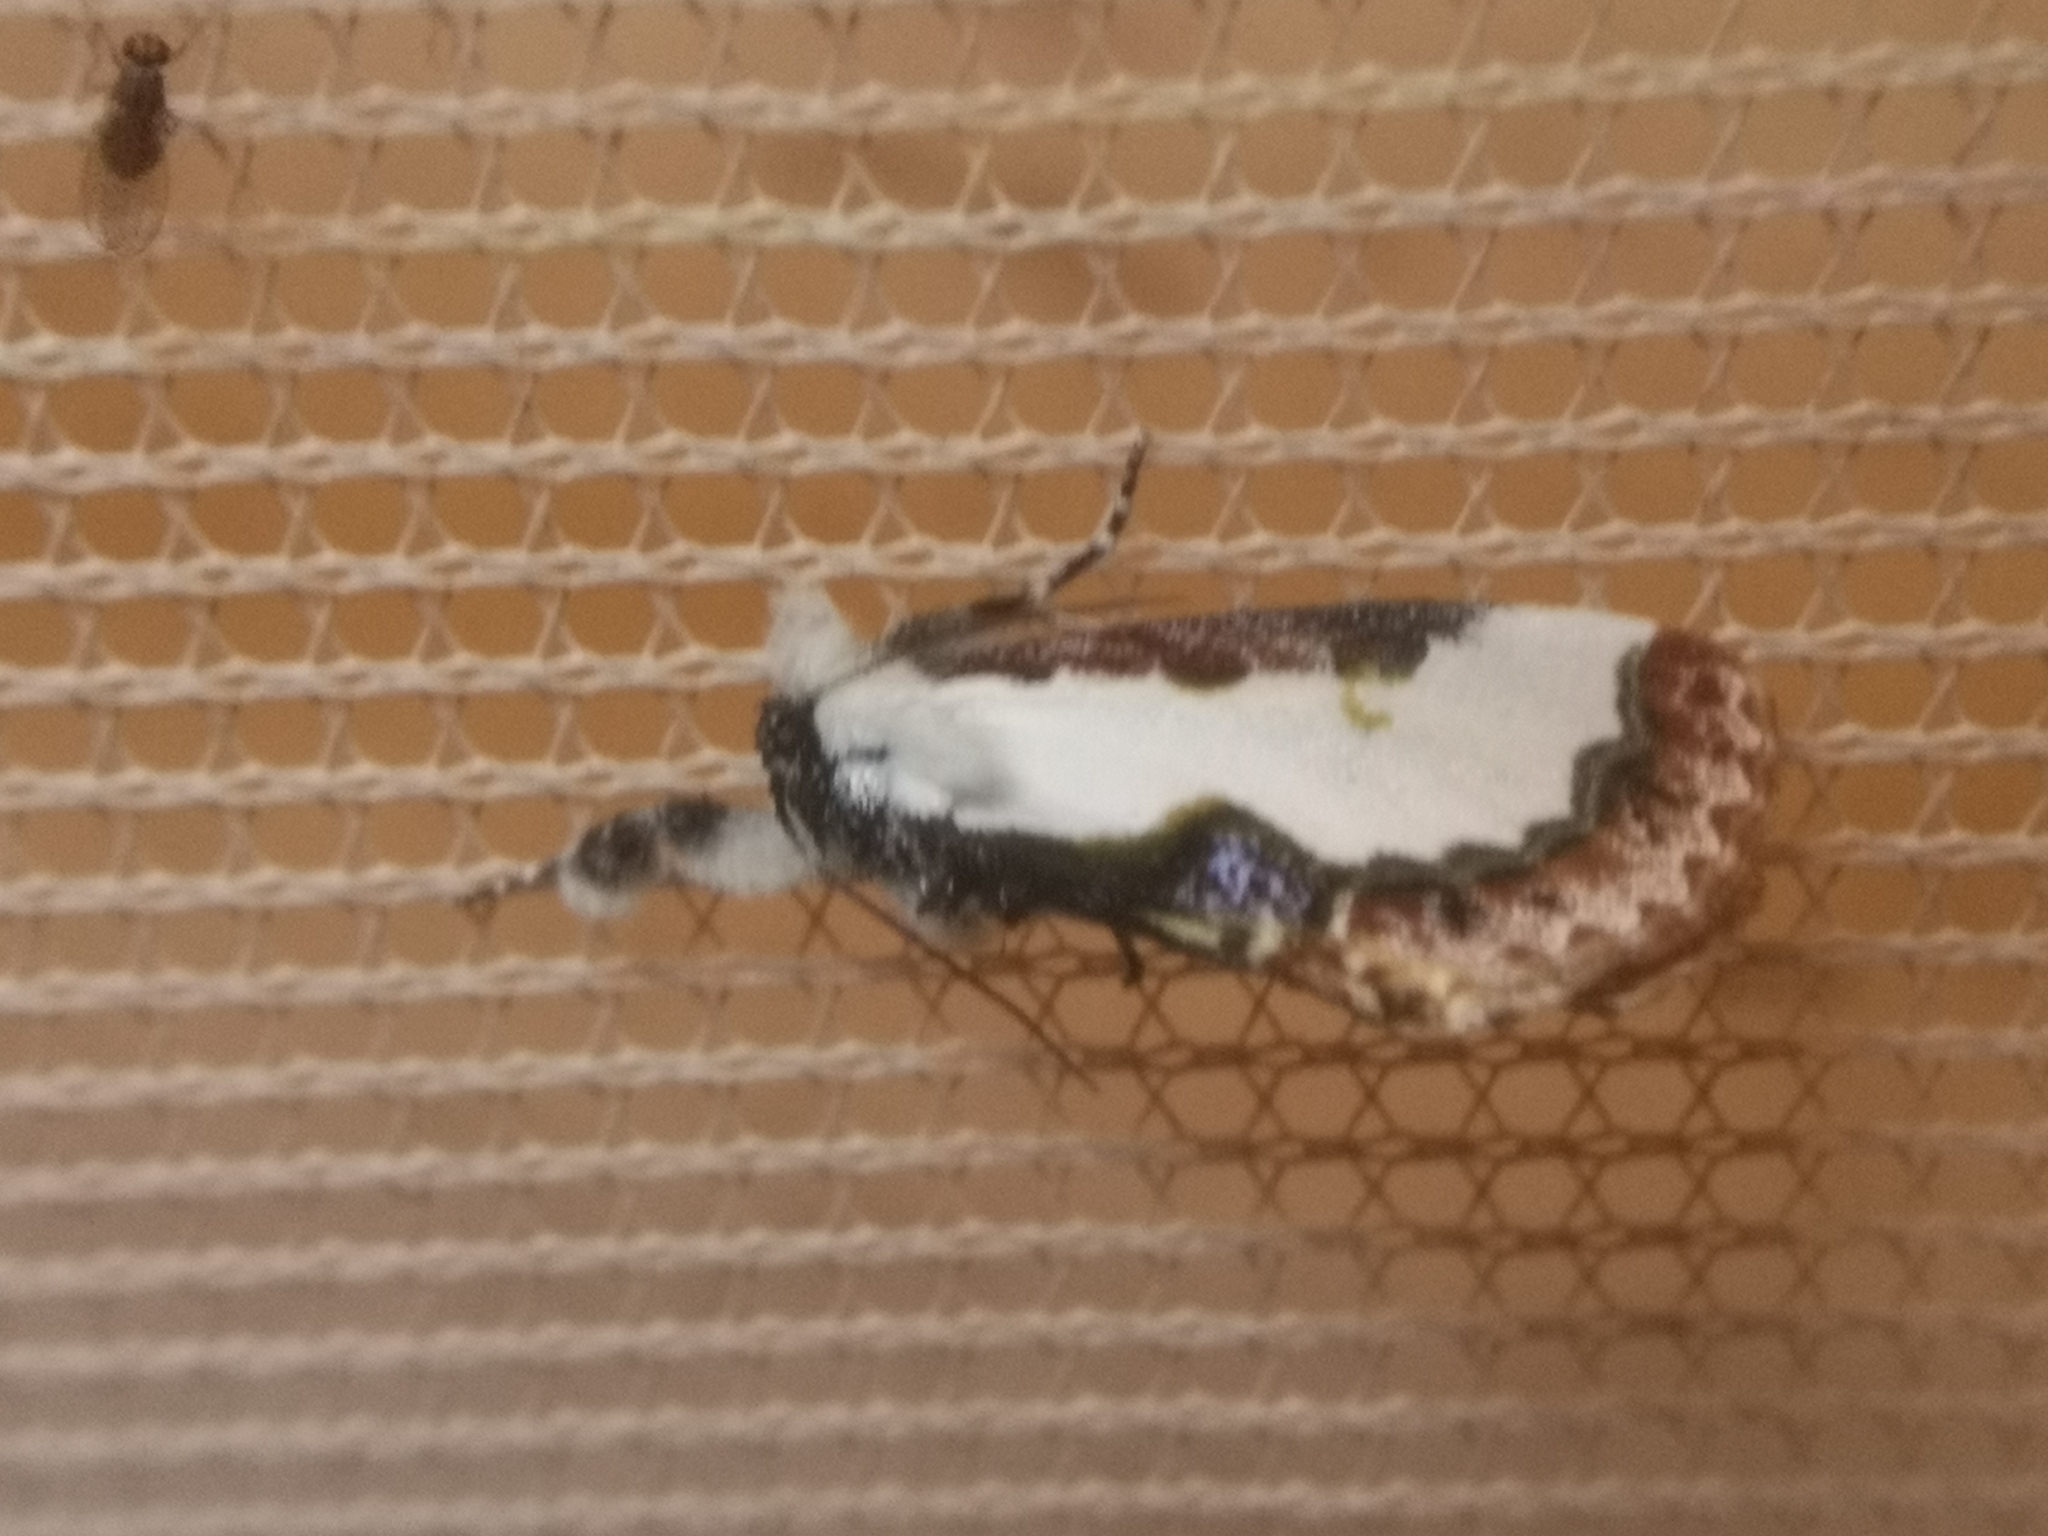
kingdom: Animalia
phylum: Arthropoda
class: Insecta
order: Lepidoptera
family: Noctuidae
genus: Eudryas
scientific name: Eudryas unio
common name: Pearly wood-nymph
